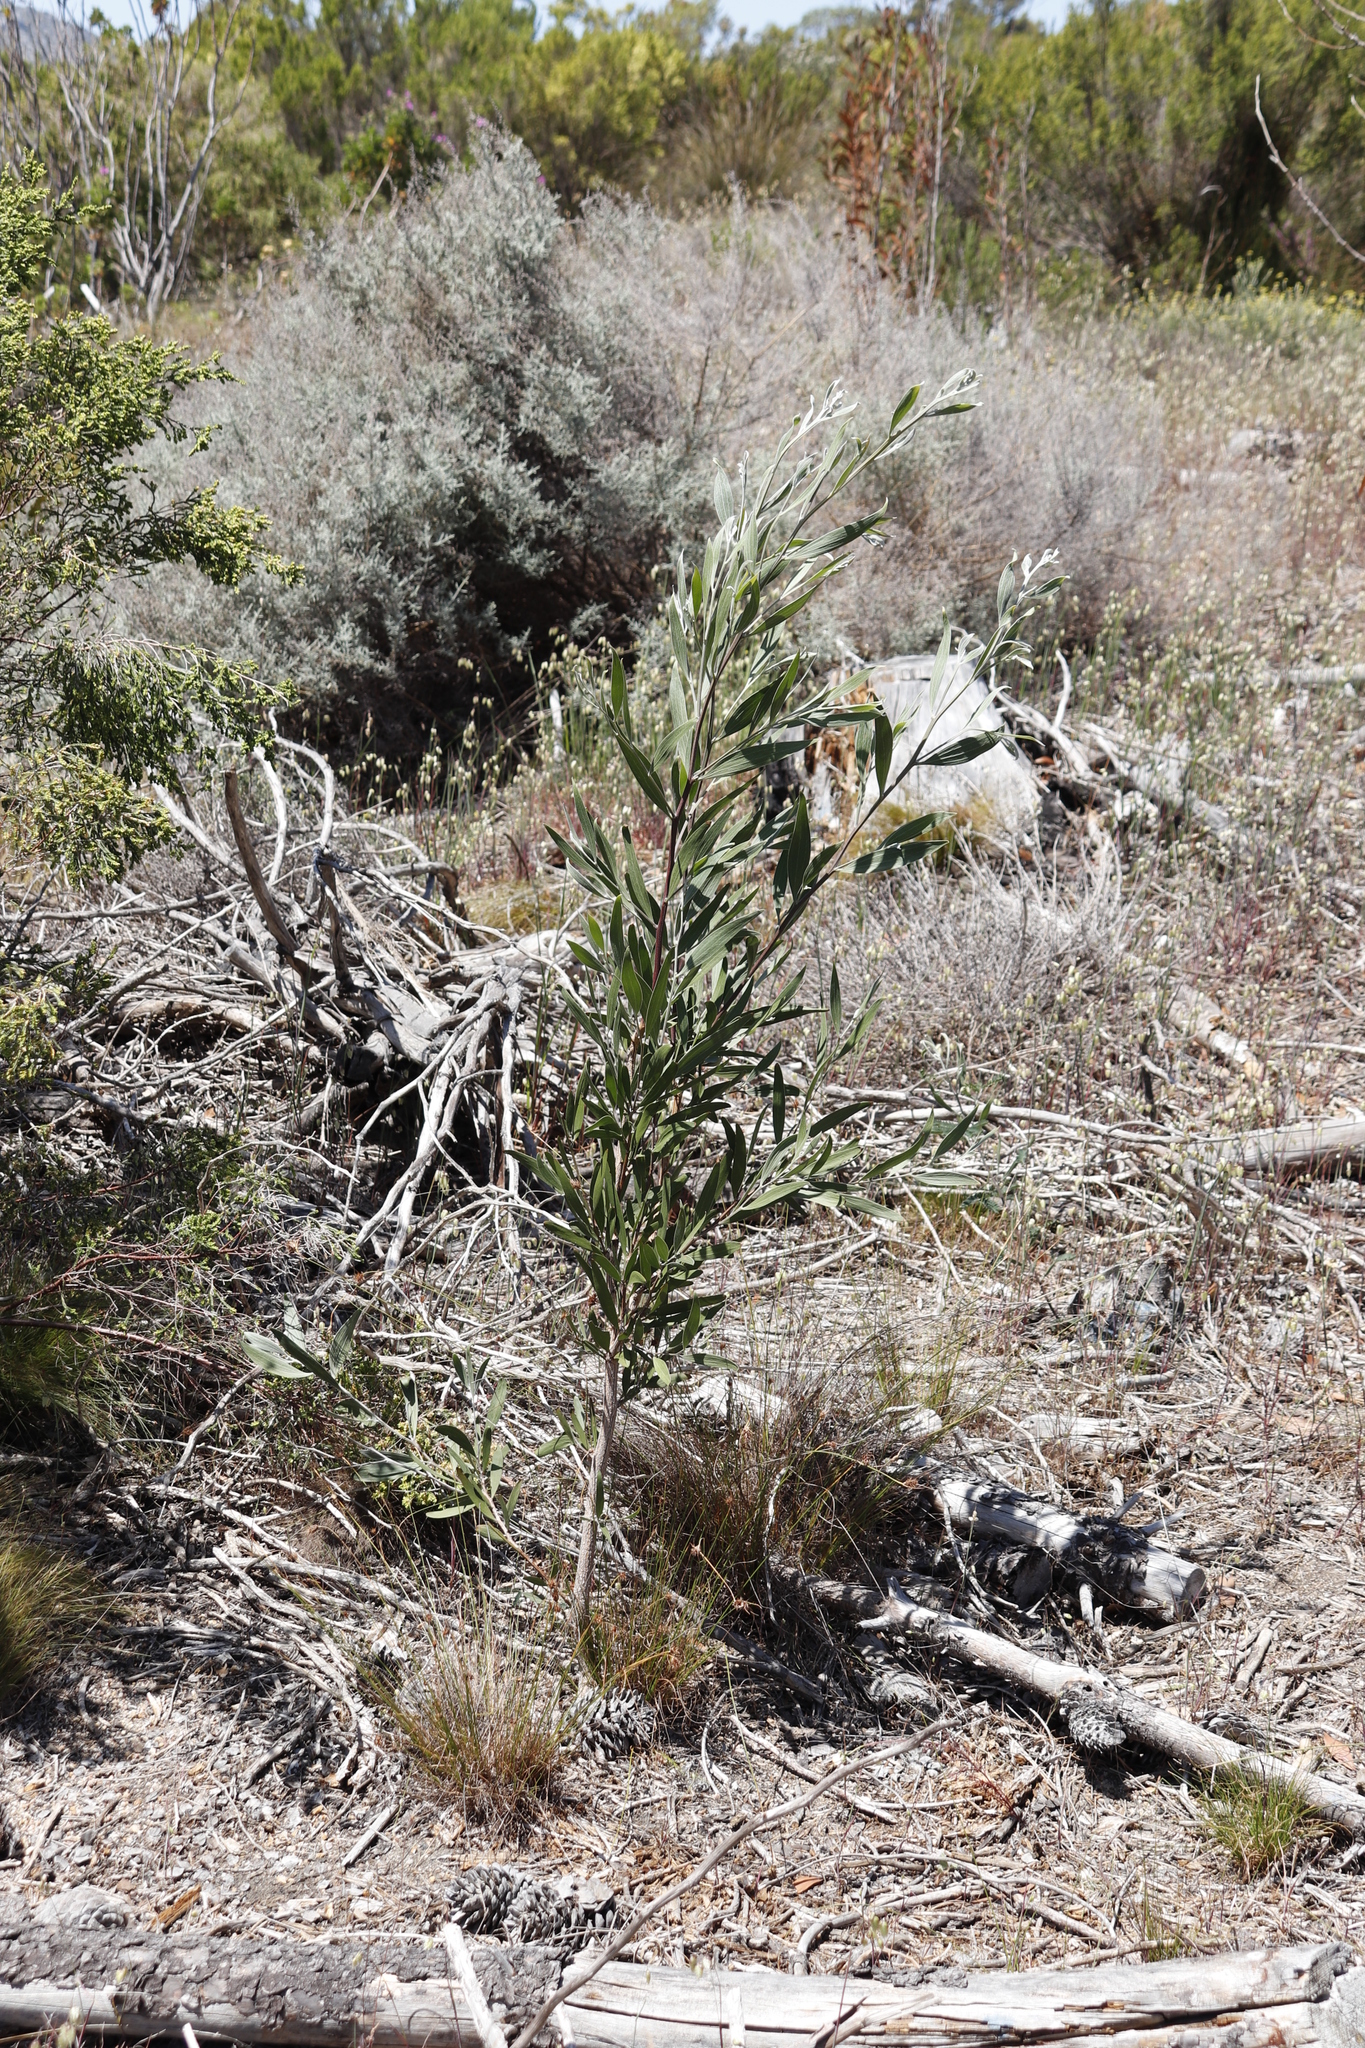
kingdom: Plantae
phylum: Tracheophyta
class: Magnoliopsida
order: Fabales
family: Fabaceae
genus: Acacia
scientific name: Acacia melanoxylon
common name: Blackwood
